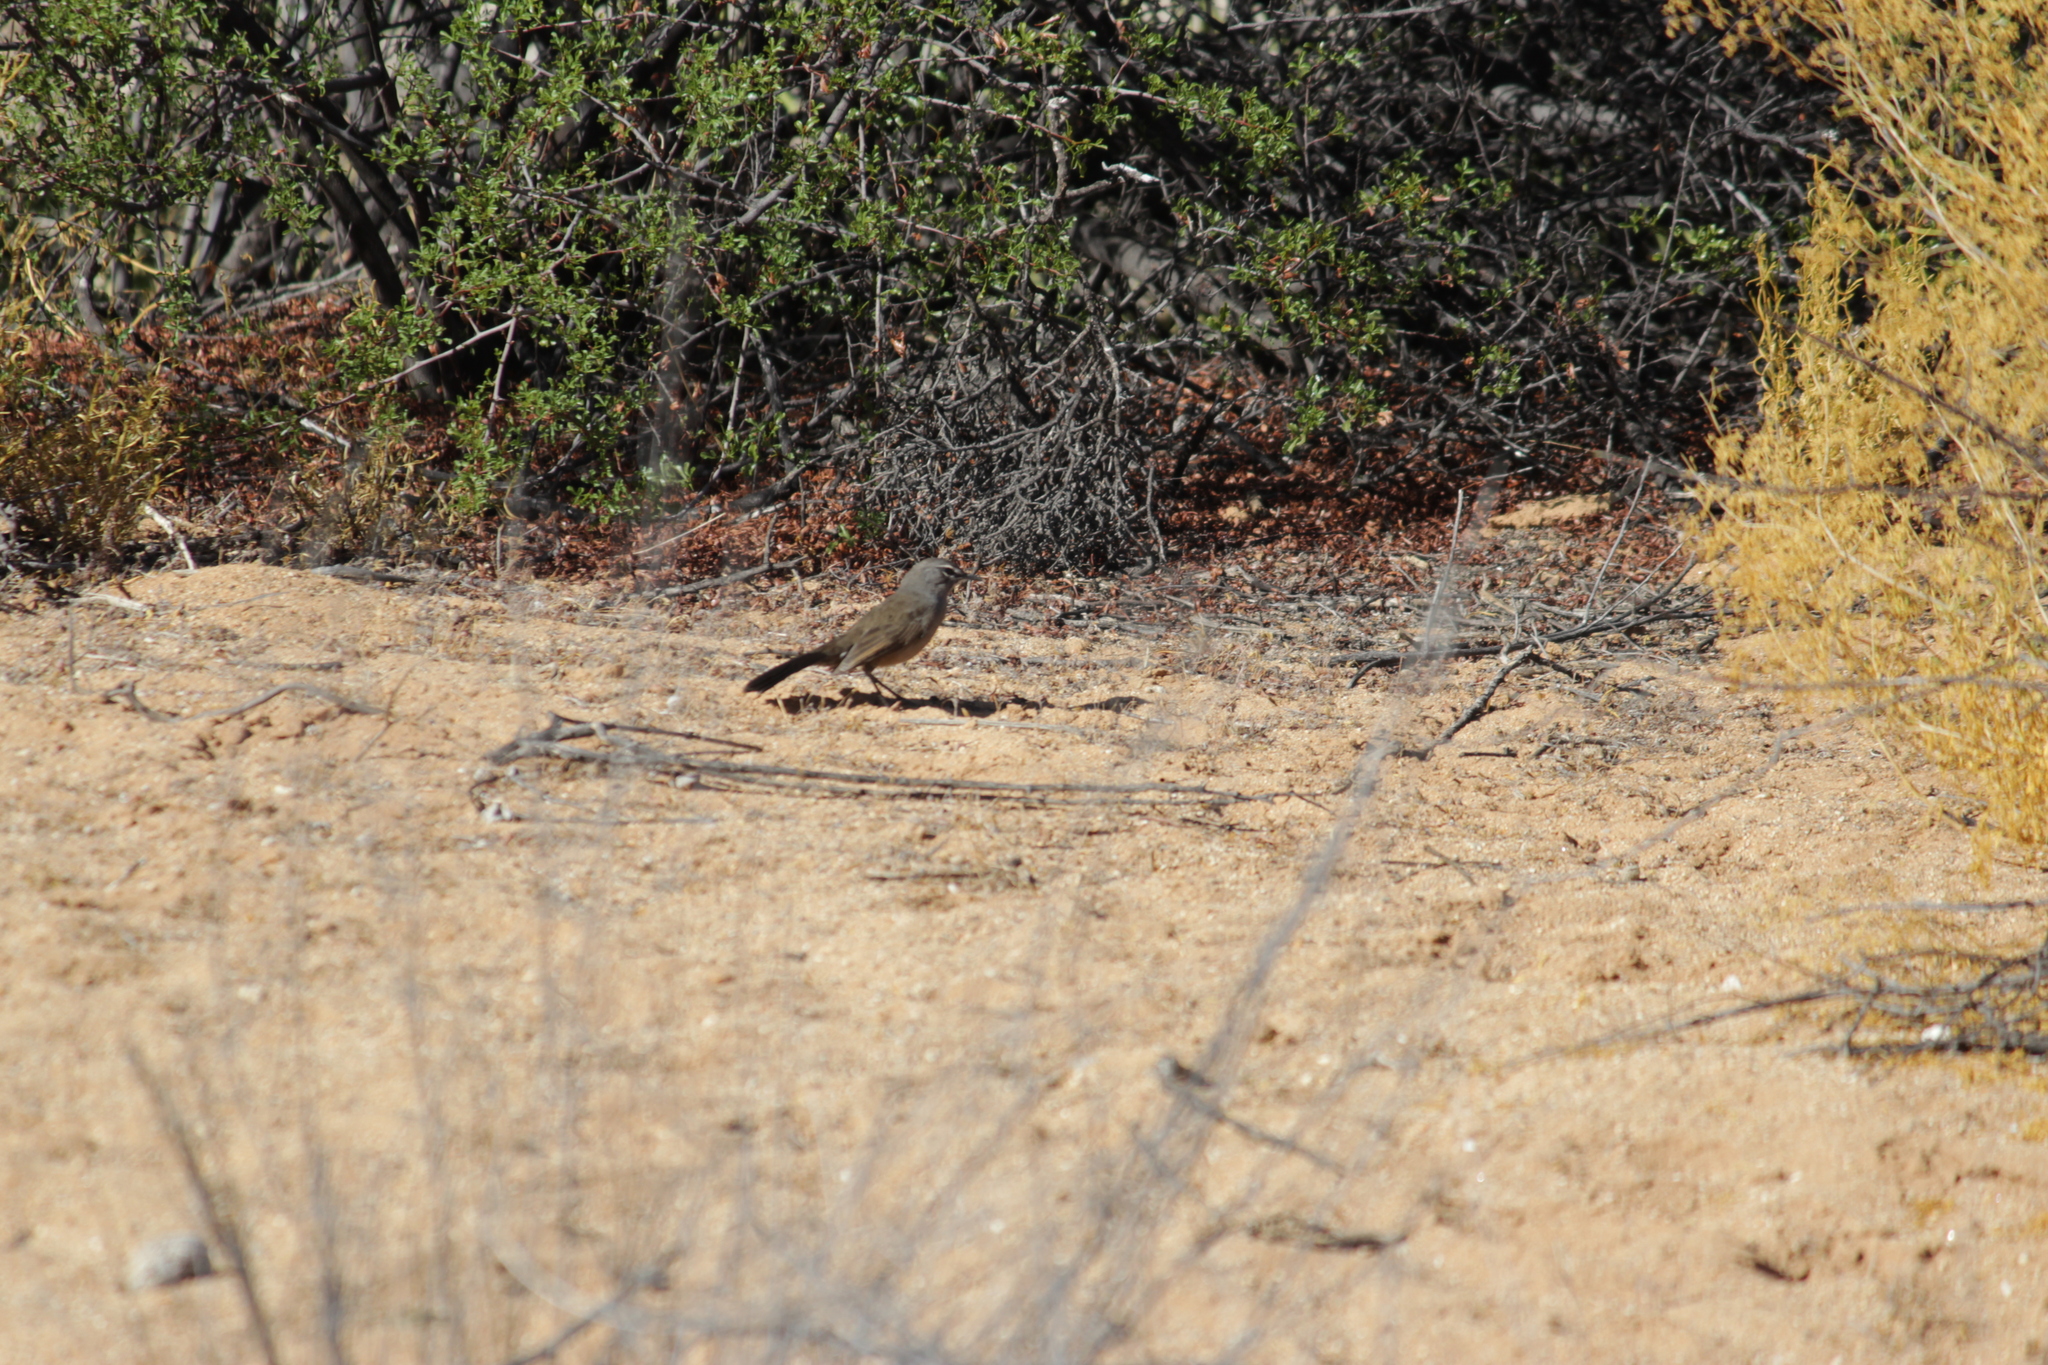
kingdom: Animalia
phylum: Chordata
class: Aves
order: Passeriformes
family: Muscicapidae
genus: Erythropygia
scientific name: Erythropygia coryphoeus
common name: Karoo scrub robin
